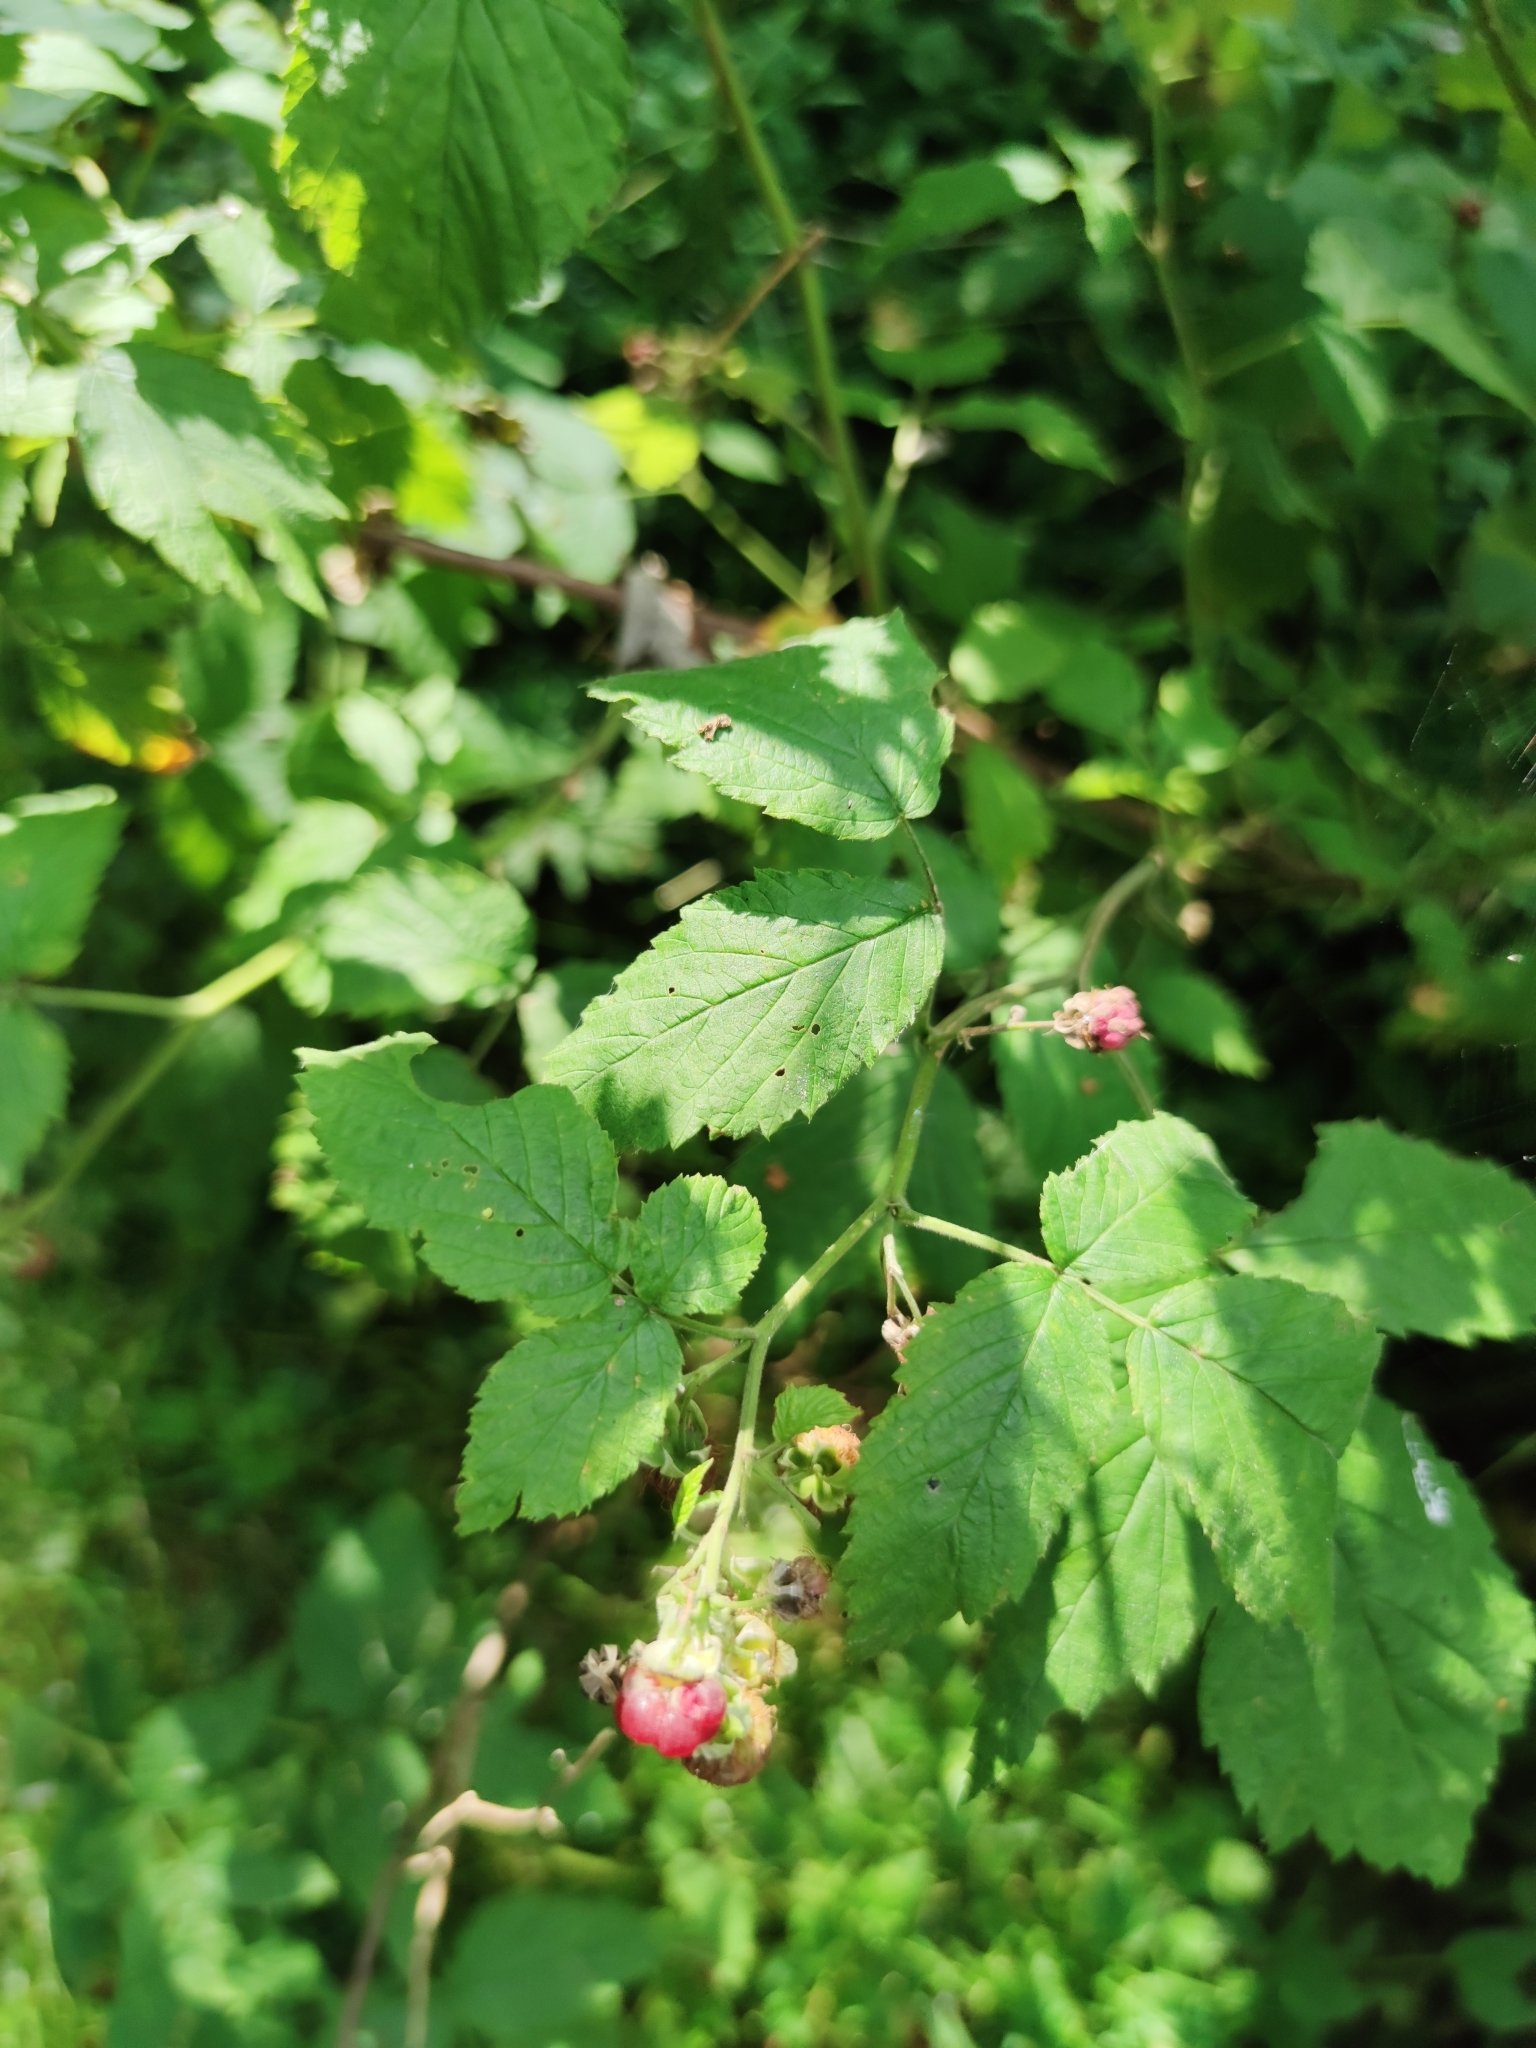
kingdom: Plantae
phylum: Tracheophyta
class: Magnoliopsida
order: Rosales
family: Rosaceae
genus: Rubus
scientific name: Rubus idaeus
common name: Raspberry
